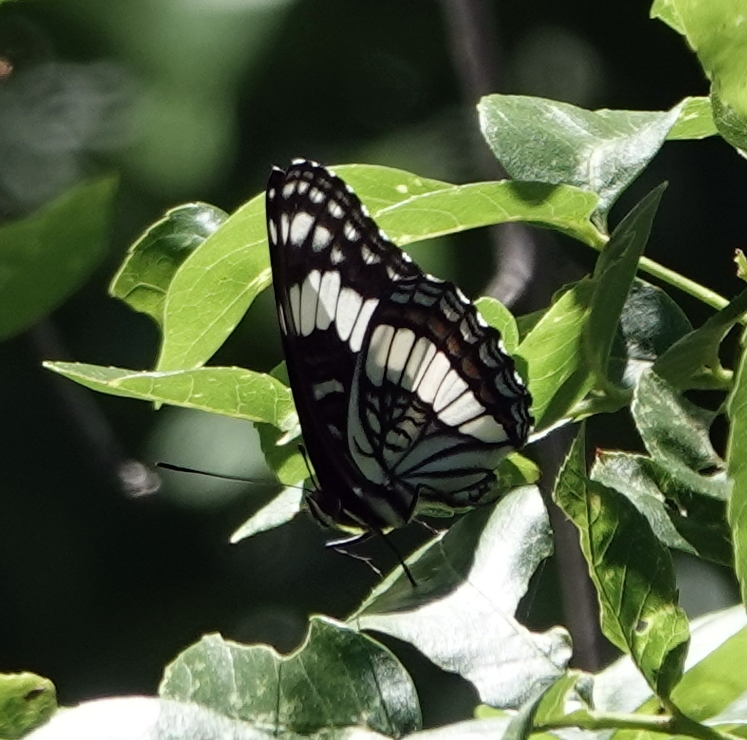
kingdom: Animalia
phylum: Arthropoda
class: Insecta
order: Lepidoptera
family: Nymphalidae
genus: Limenitis
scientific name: Limenitis weidemeyerii
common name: Weidemeyer's admiral
